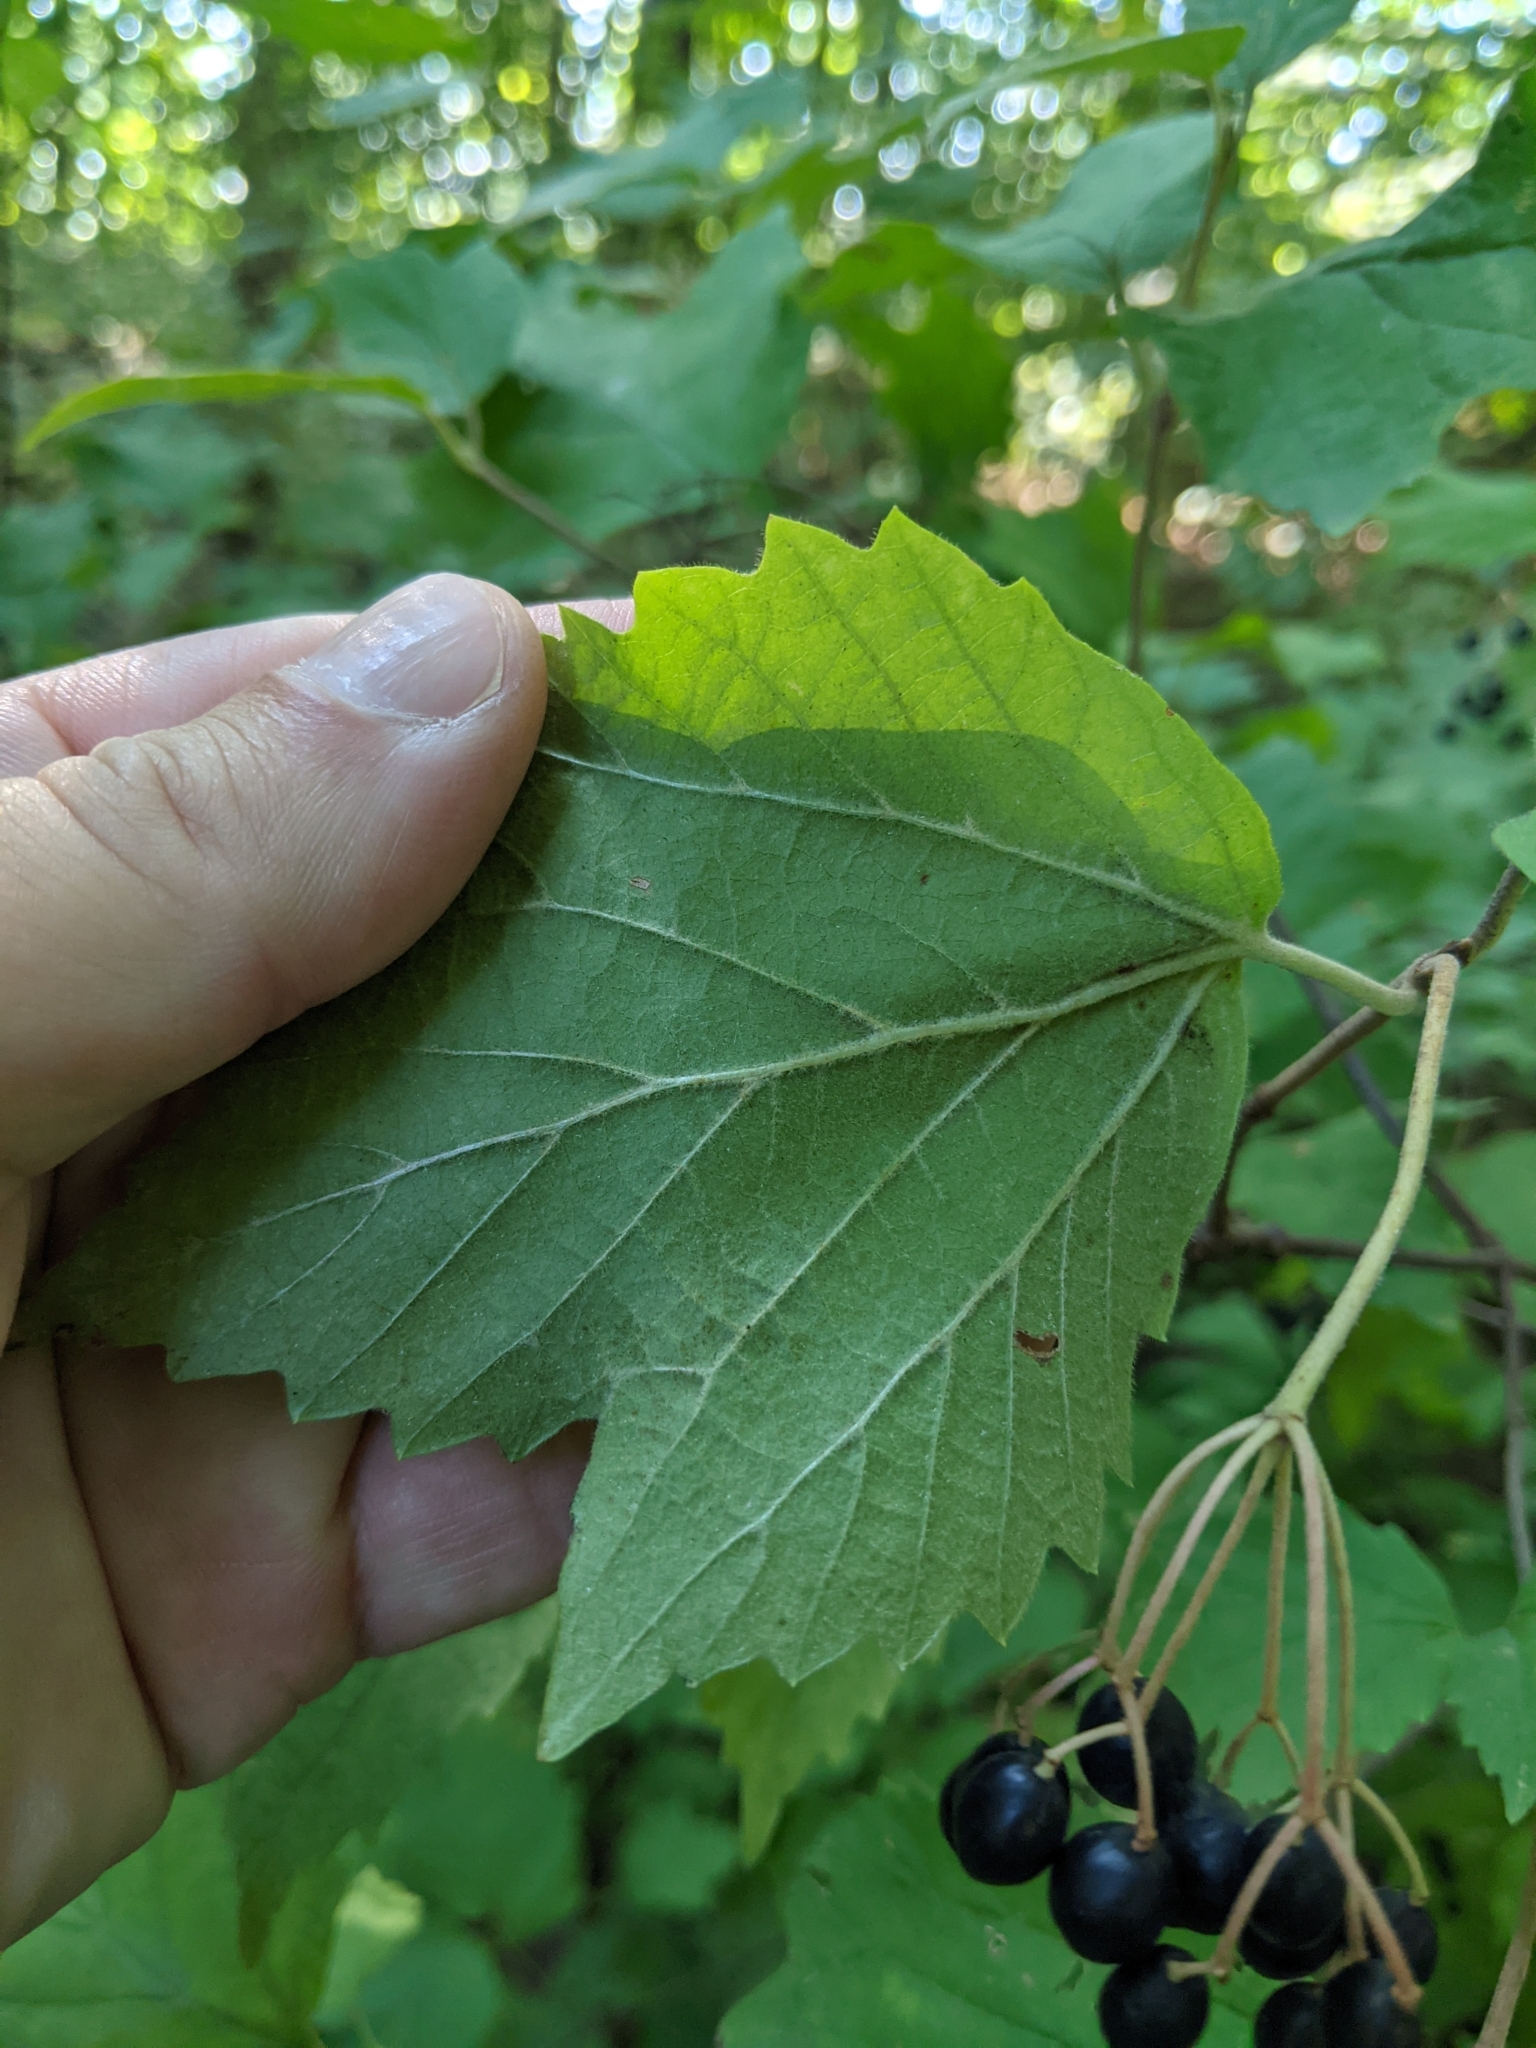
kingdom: Plantae
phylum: Tracheophyta
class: Magnoliopsida
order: Dipsacales
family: Viburnaceae
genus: Viburnum
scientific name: Viburnum acerifolium
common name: Dockmackie
